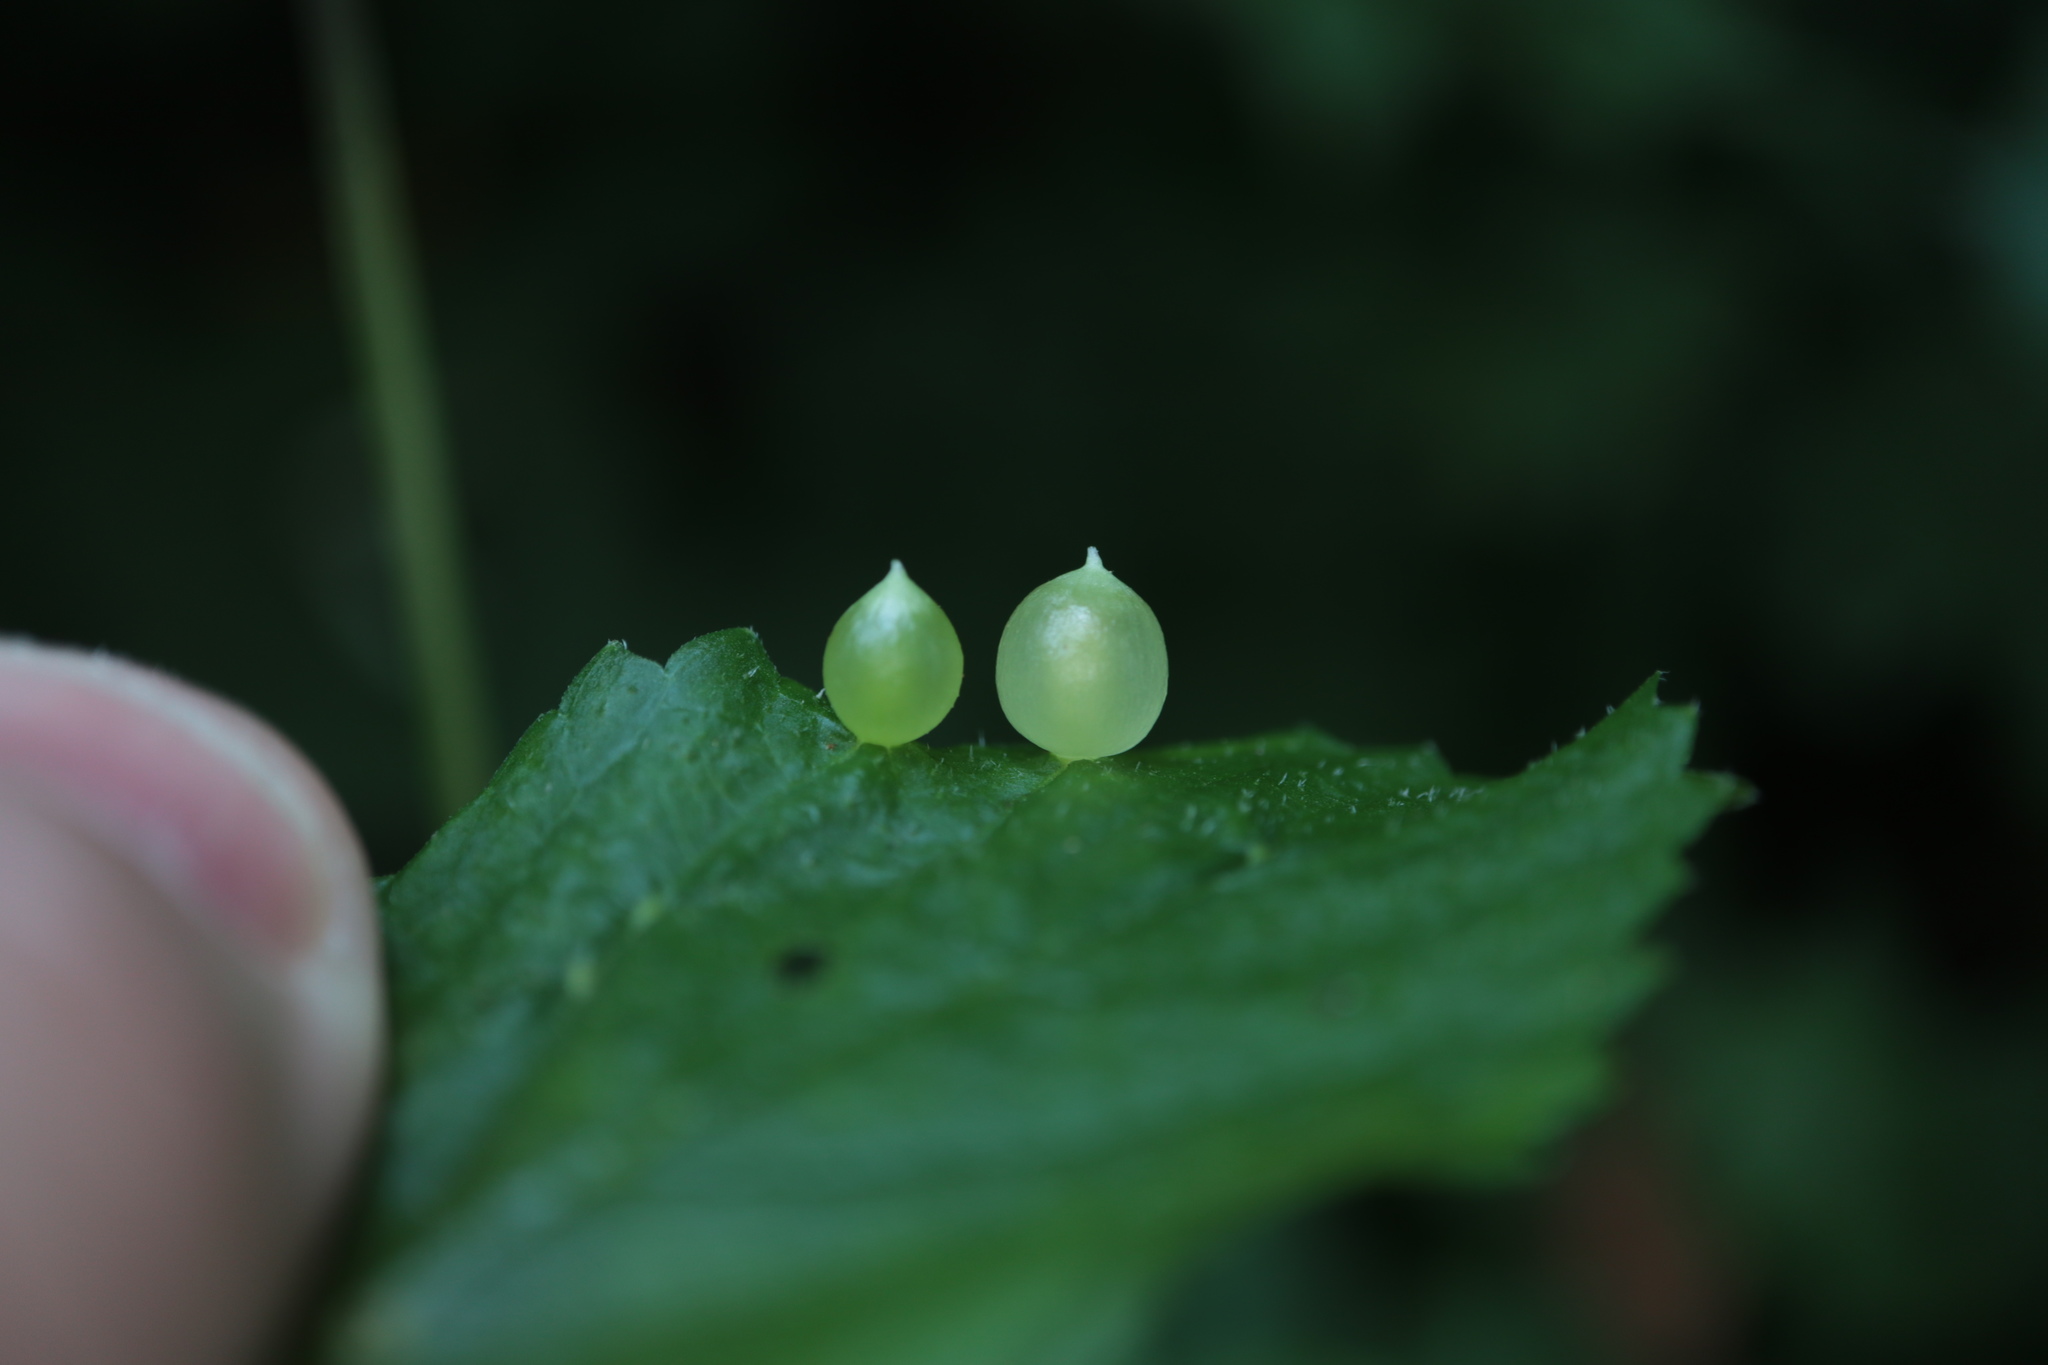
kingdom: Animalia
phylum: Arthropoda
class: Insecta
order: Diptera
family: Cecidomyiidae
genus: Dasineura
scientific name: Dasineura investita
